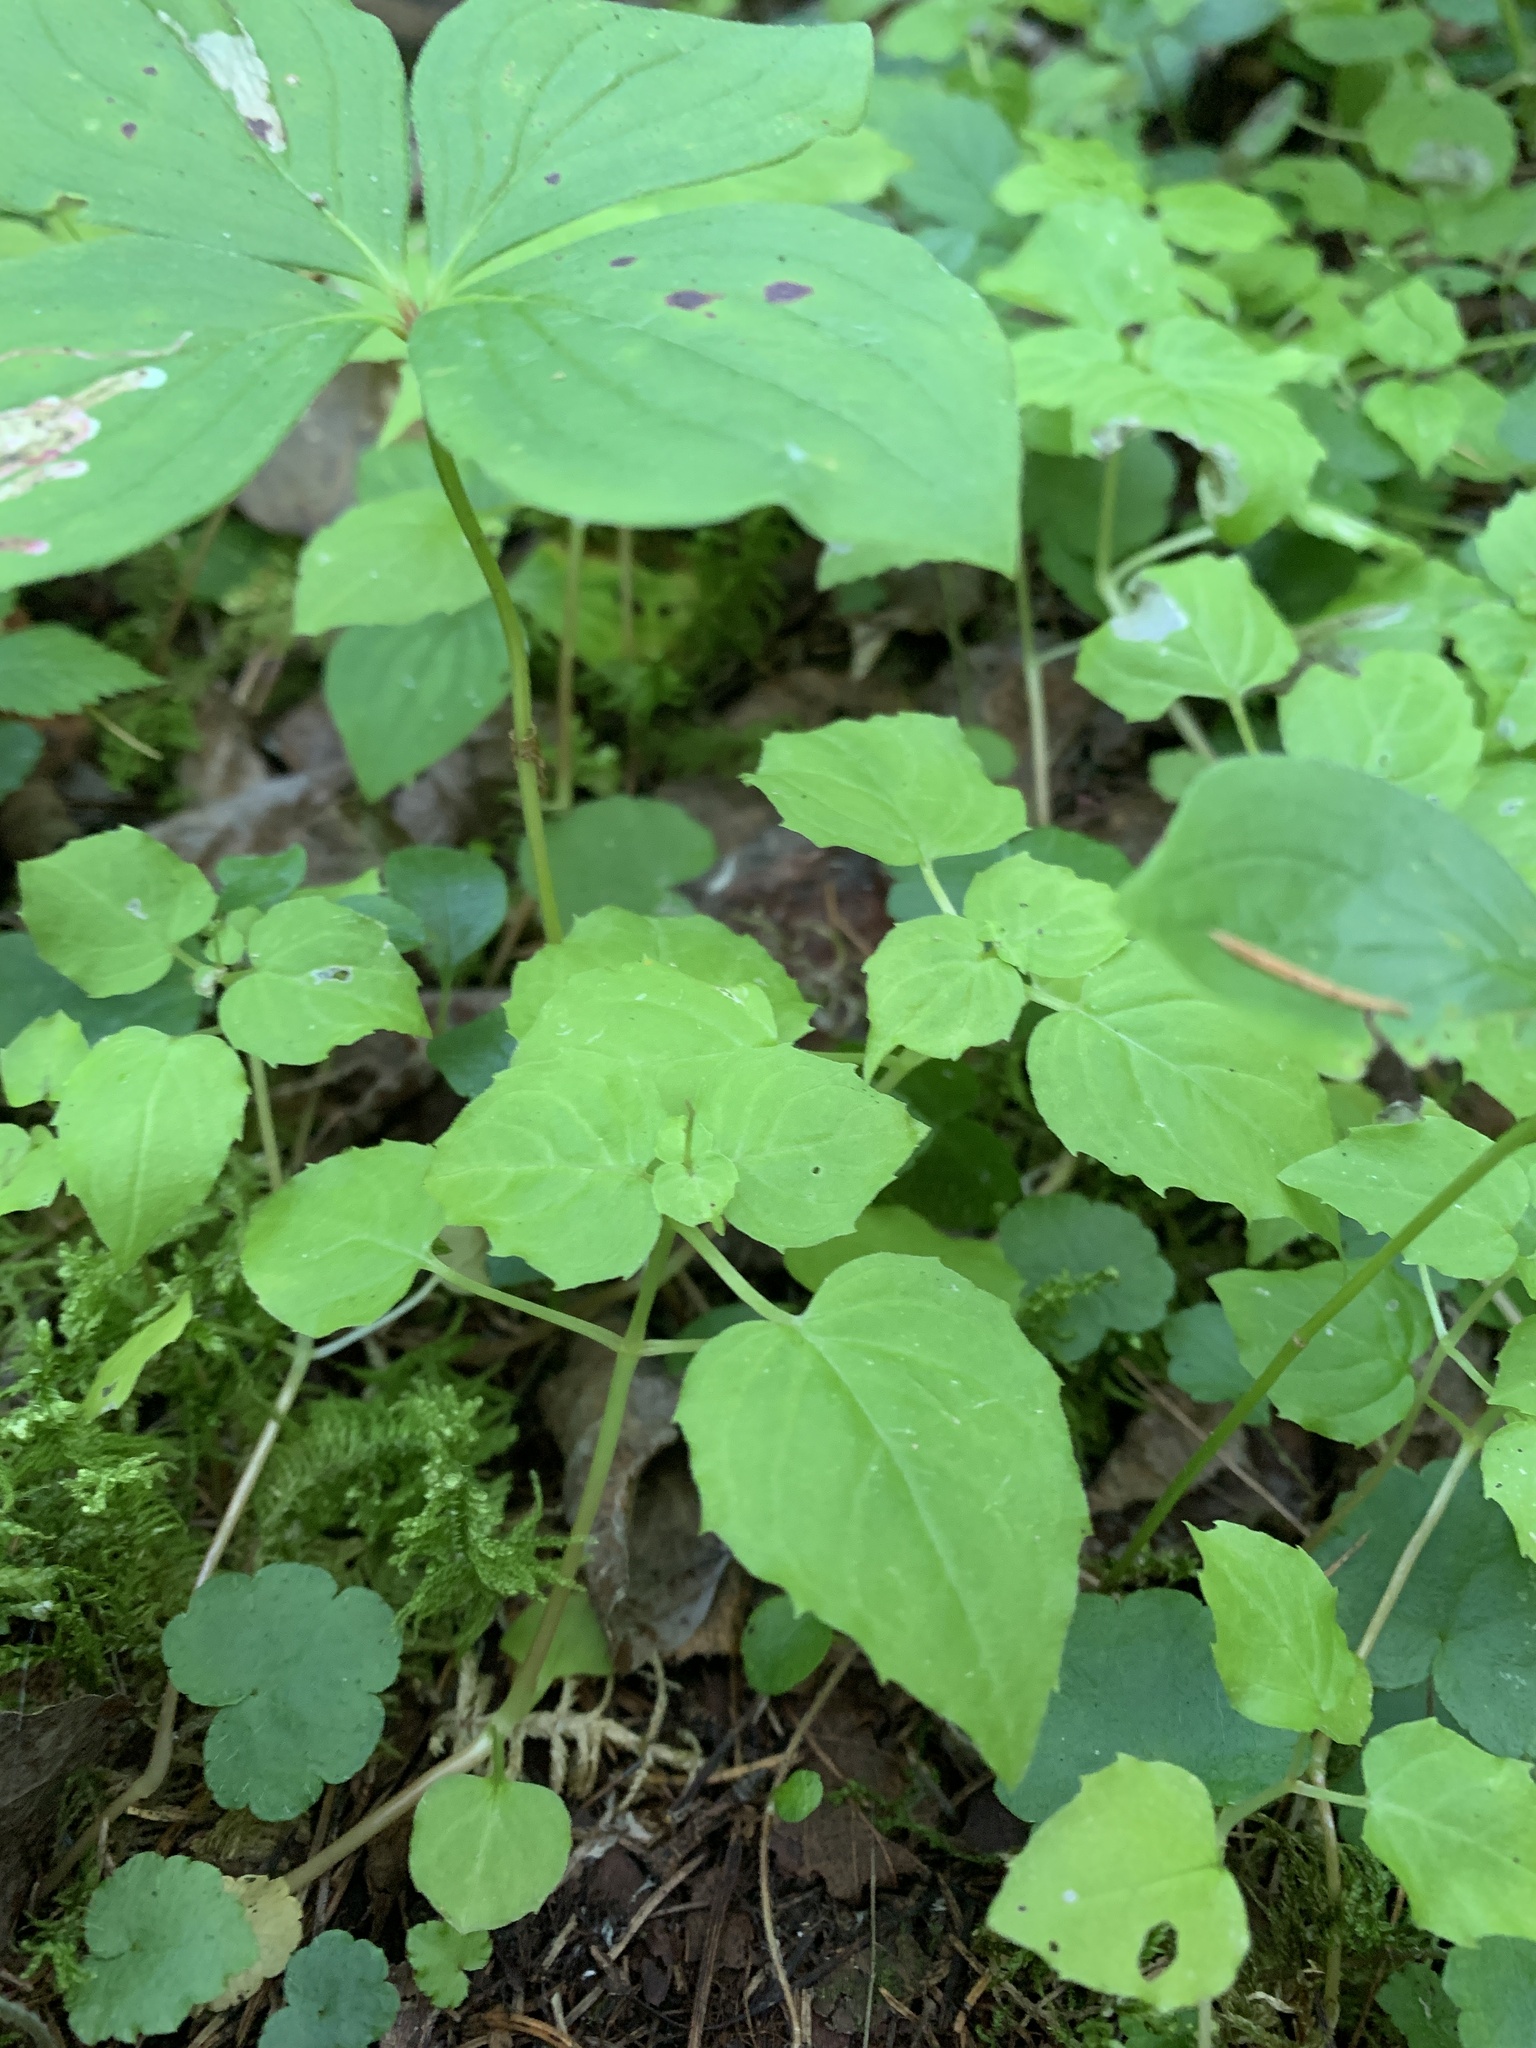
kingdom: Plantae
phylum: Tracheophyta
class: Magnoliopsida
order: Myrtales
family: Onagraceae
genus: Circaea
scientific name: Circaea alpina
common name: Alpine enchanter's-nightshade
